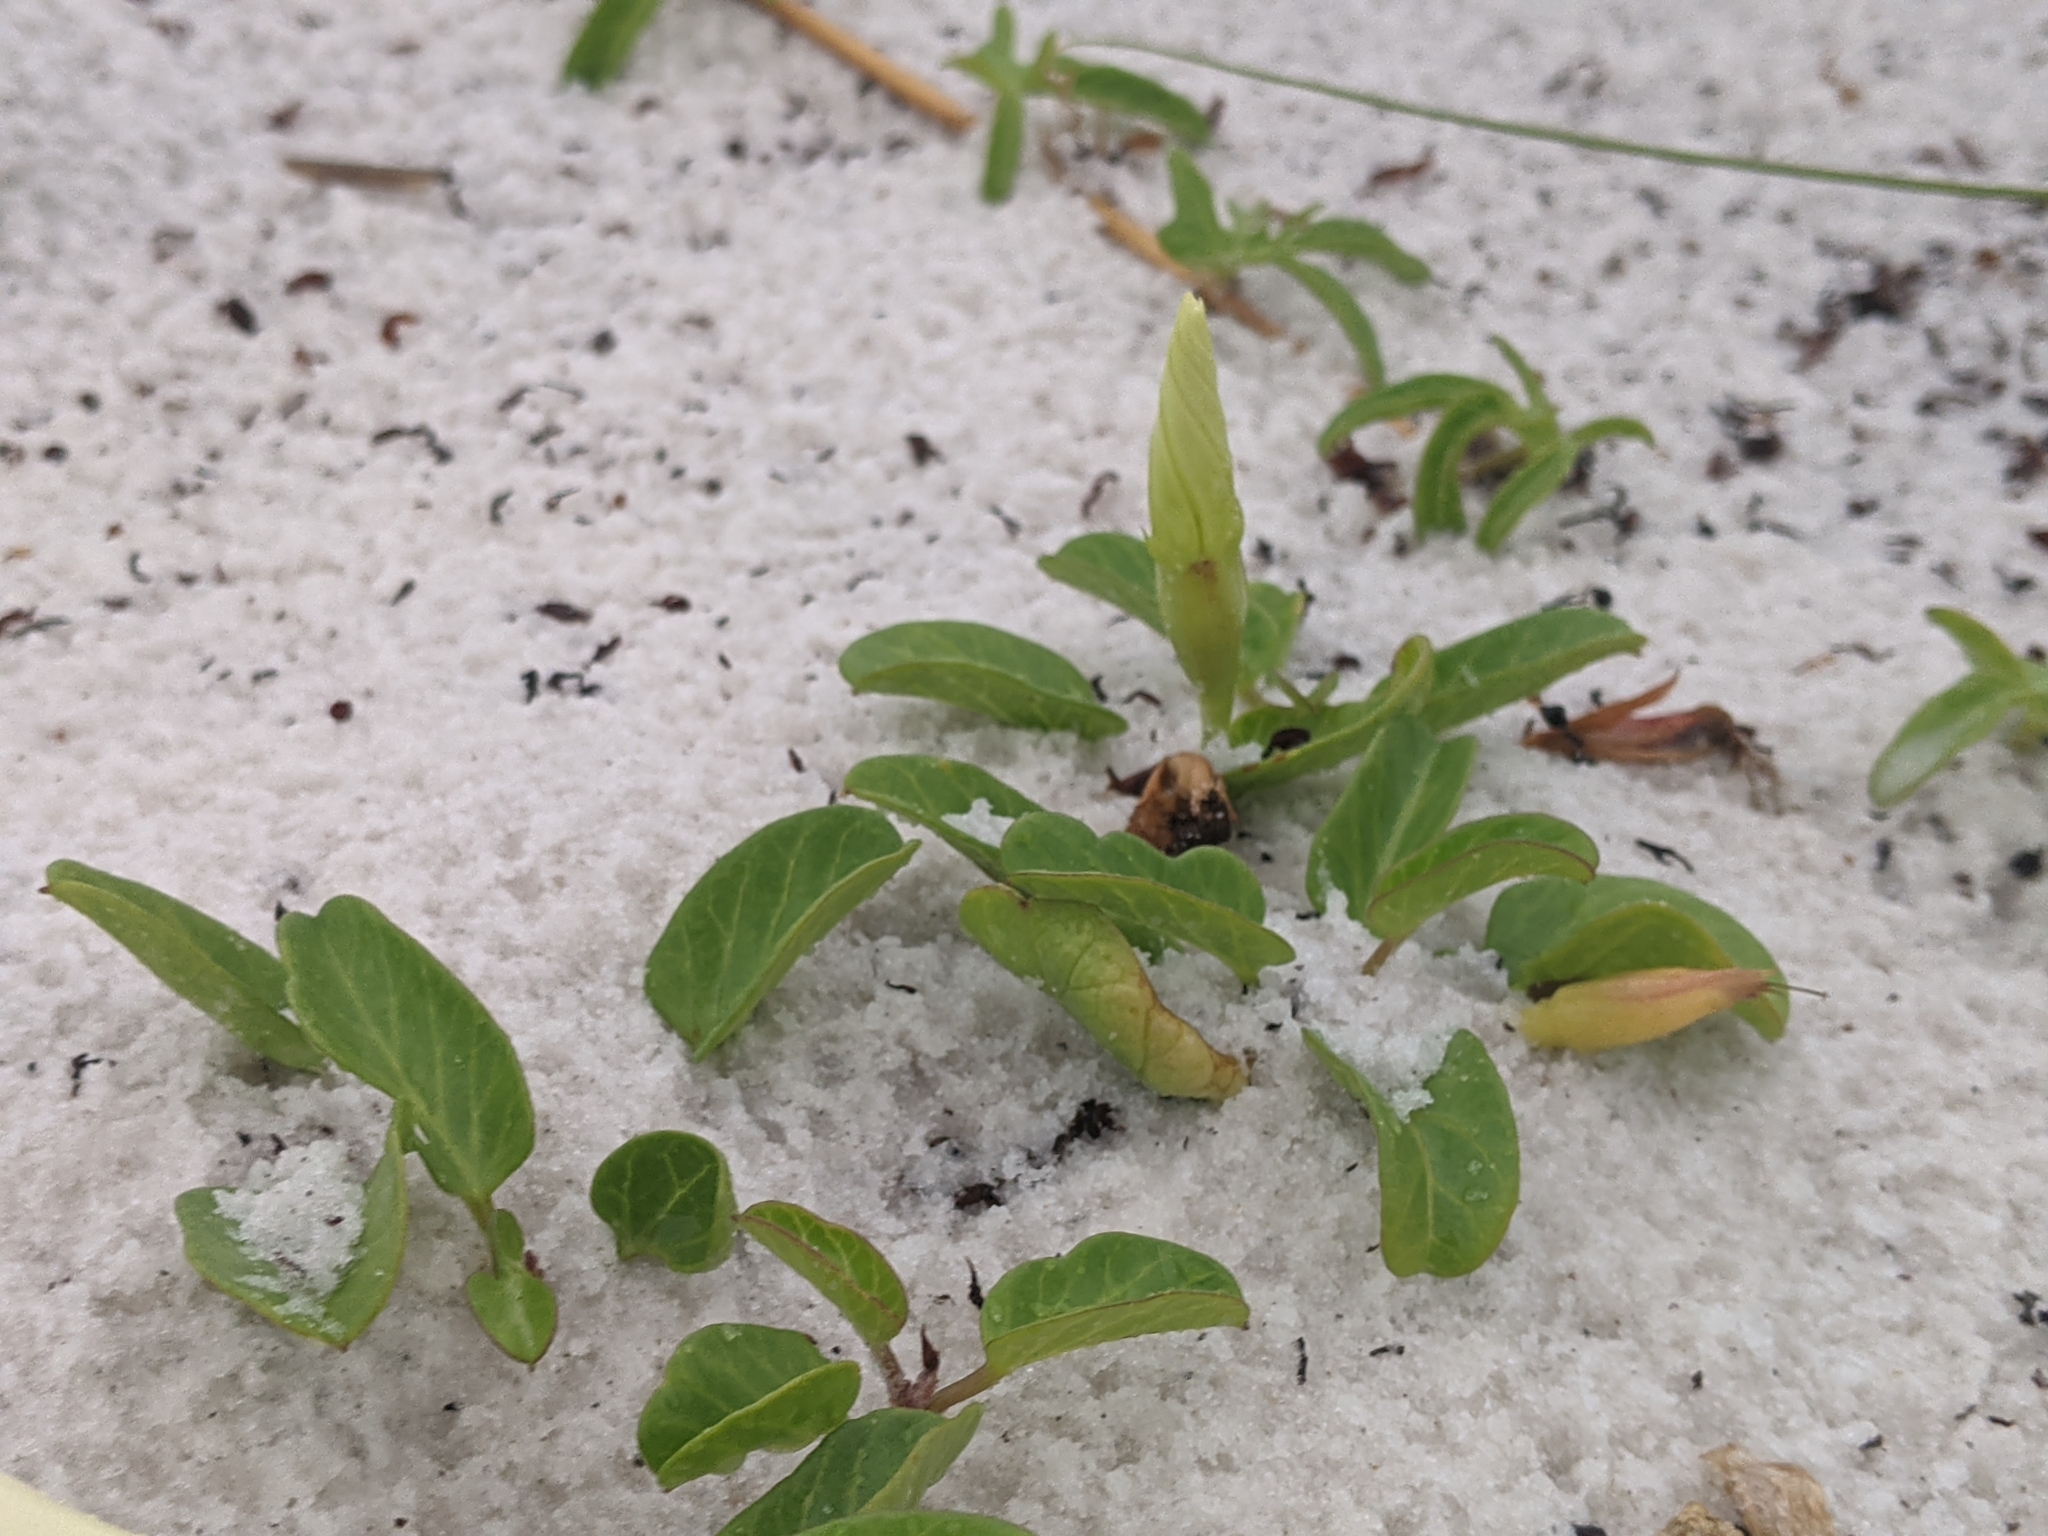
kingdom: Plantae
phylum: Tracheophyta
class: Magnoliopsida
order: Solanales
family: Convolvulaceae
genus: Ipomoea
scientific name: Ipomoea imperati
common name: Fiddle-leaf morning-glory
